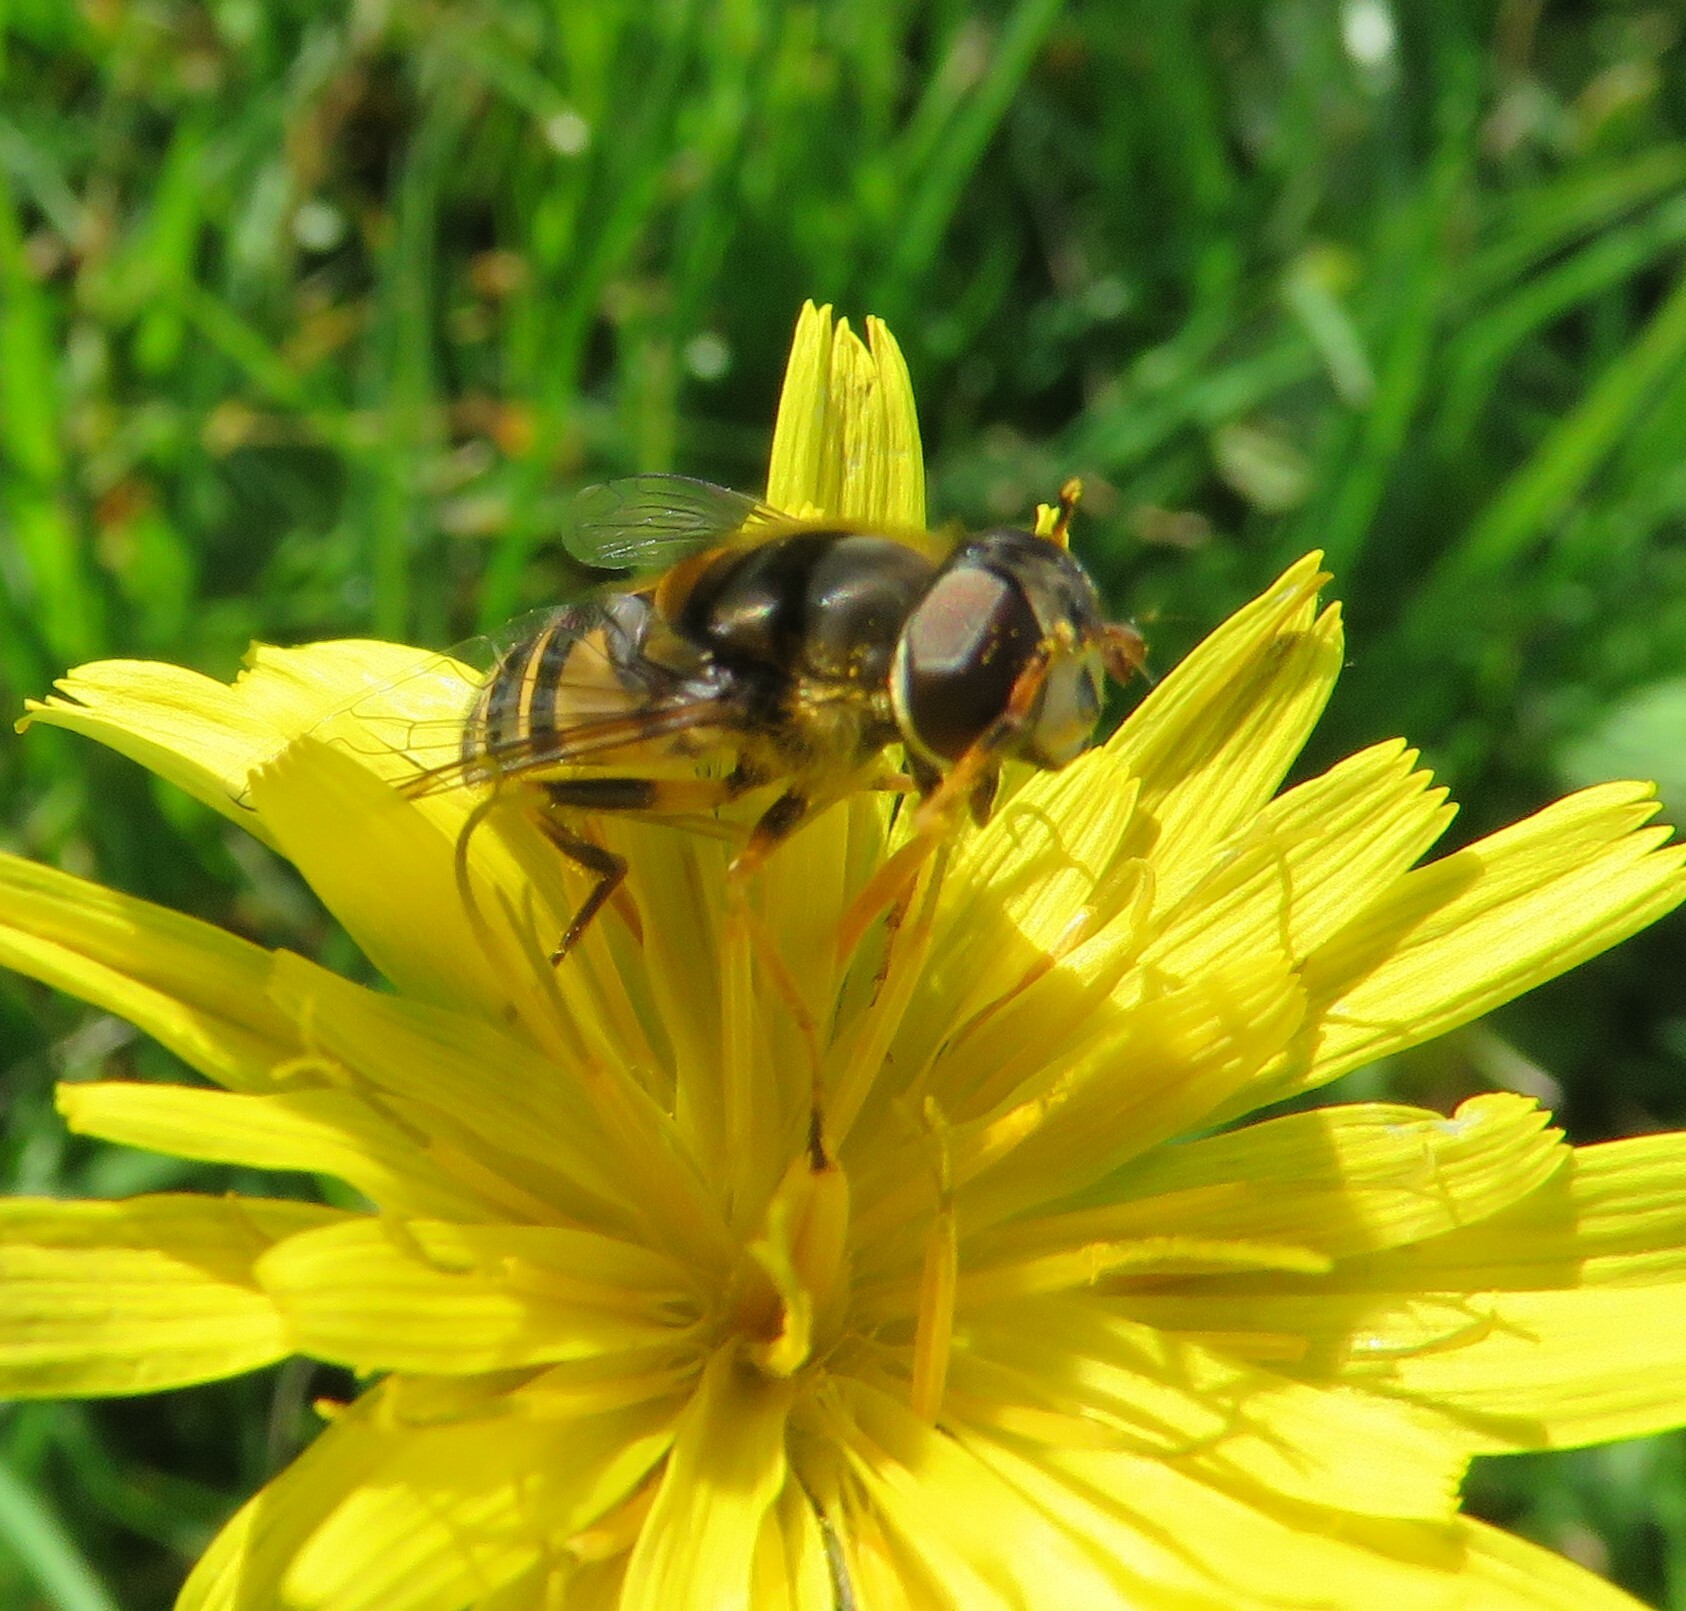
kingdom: Animalia
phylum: Arthropoda
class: Insecta
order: Diptera
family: Syrphidae
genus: Eristalis
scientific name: Eristalis transversa
